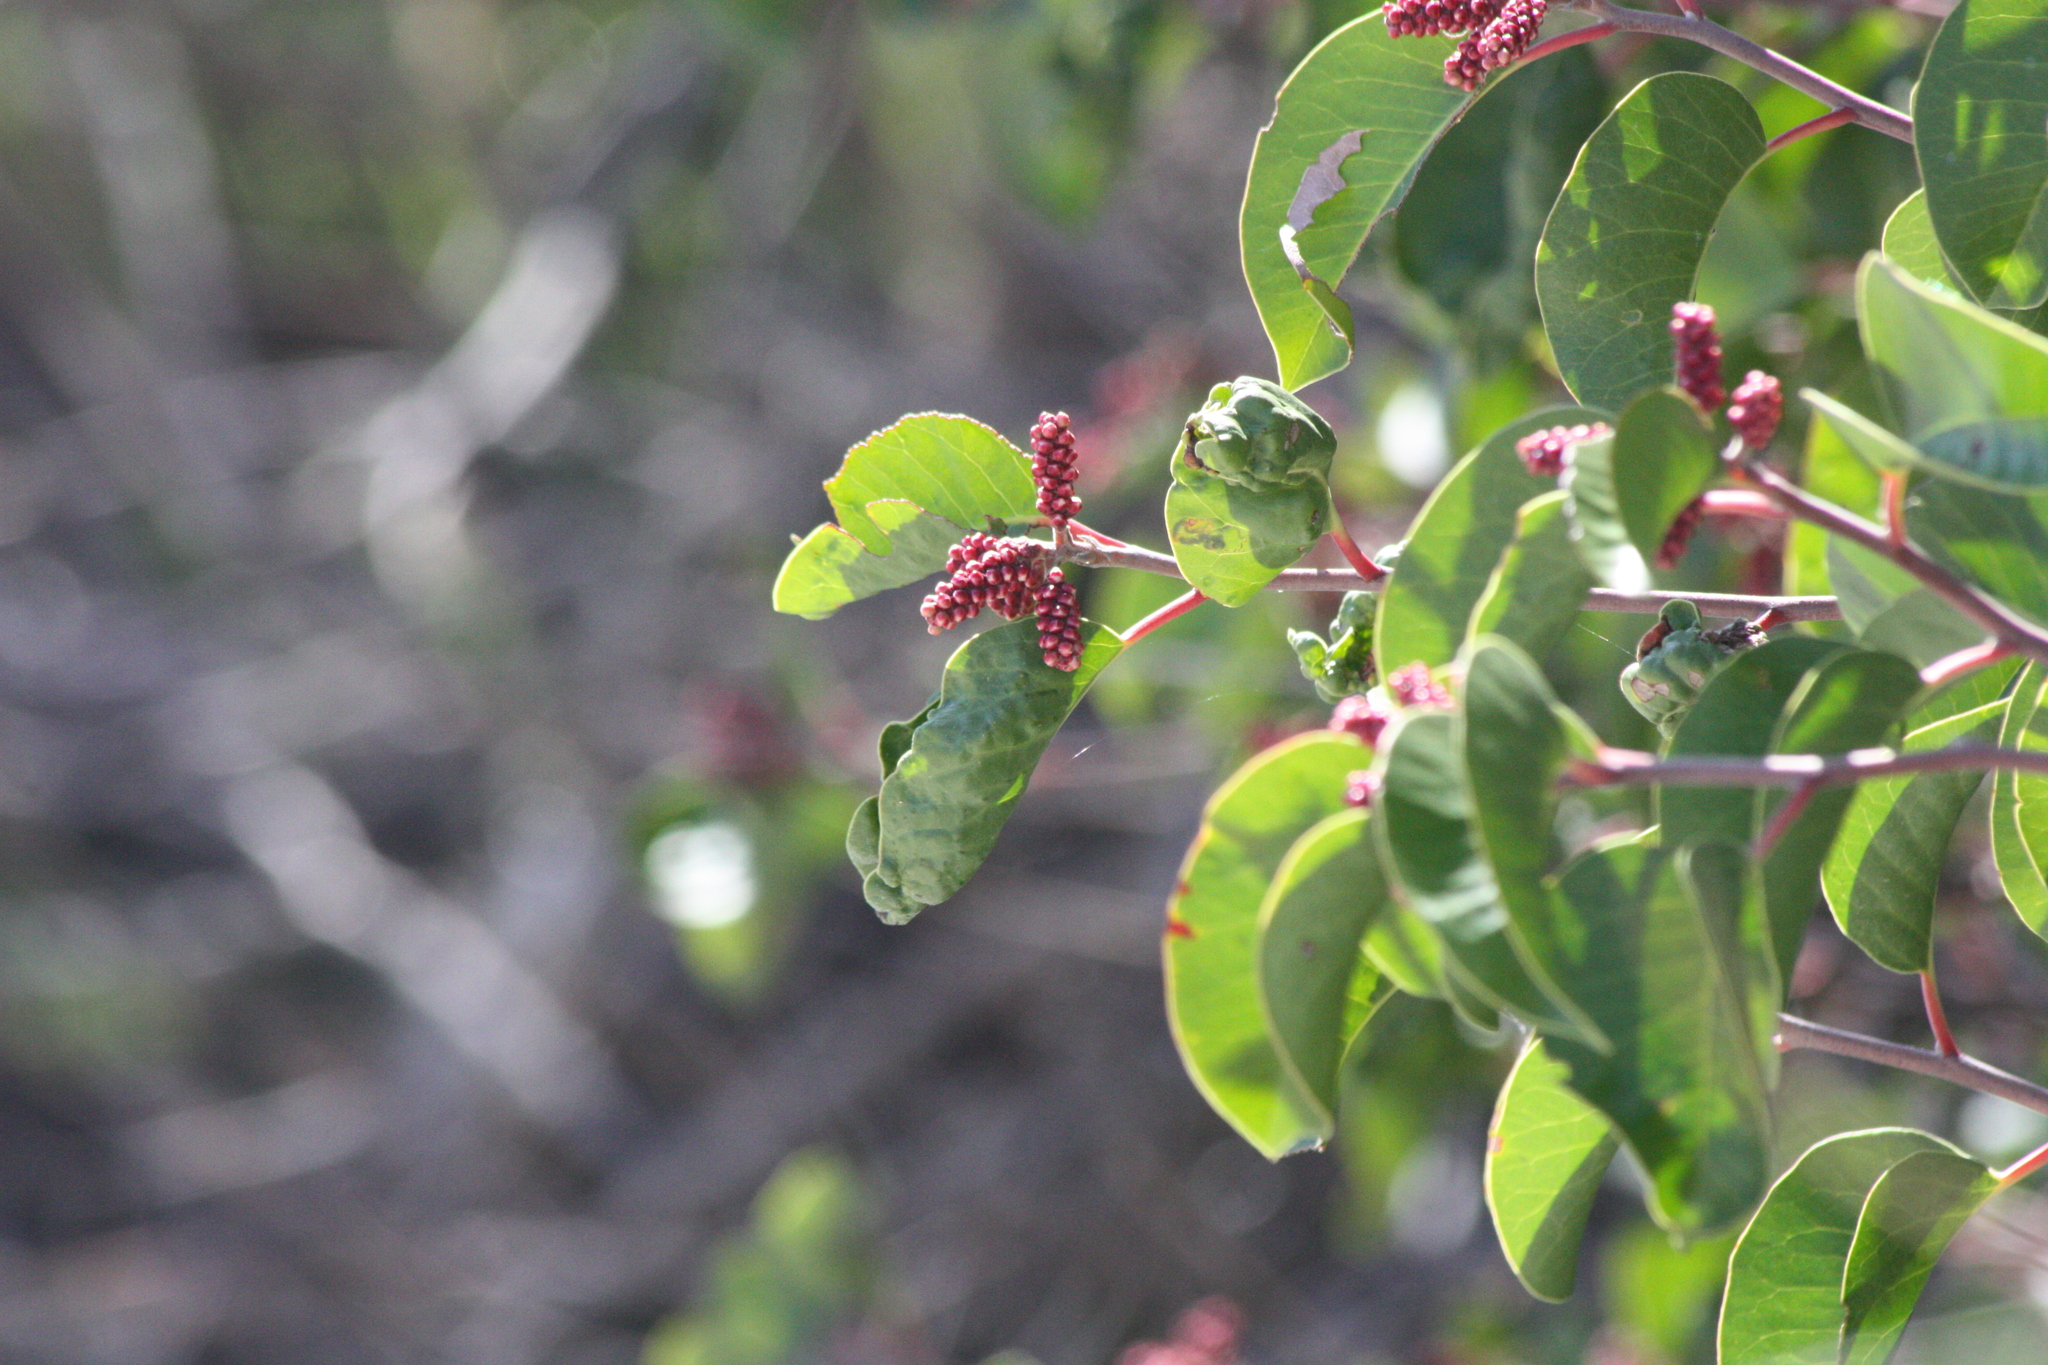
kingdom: Plantae
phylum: Tracheophyta
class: Magnoliopsida
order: Sapindales
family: Anacardiaceae
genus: Rhus
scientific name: Rhus ovata
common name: Sugar sumac
